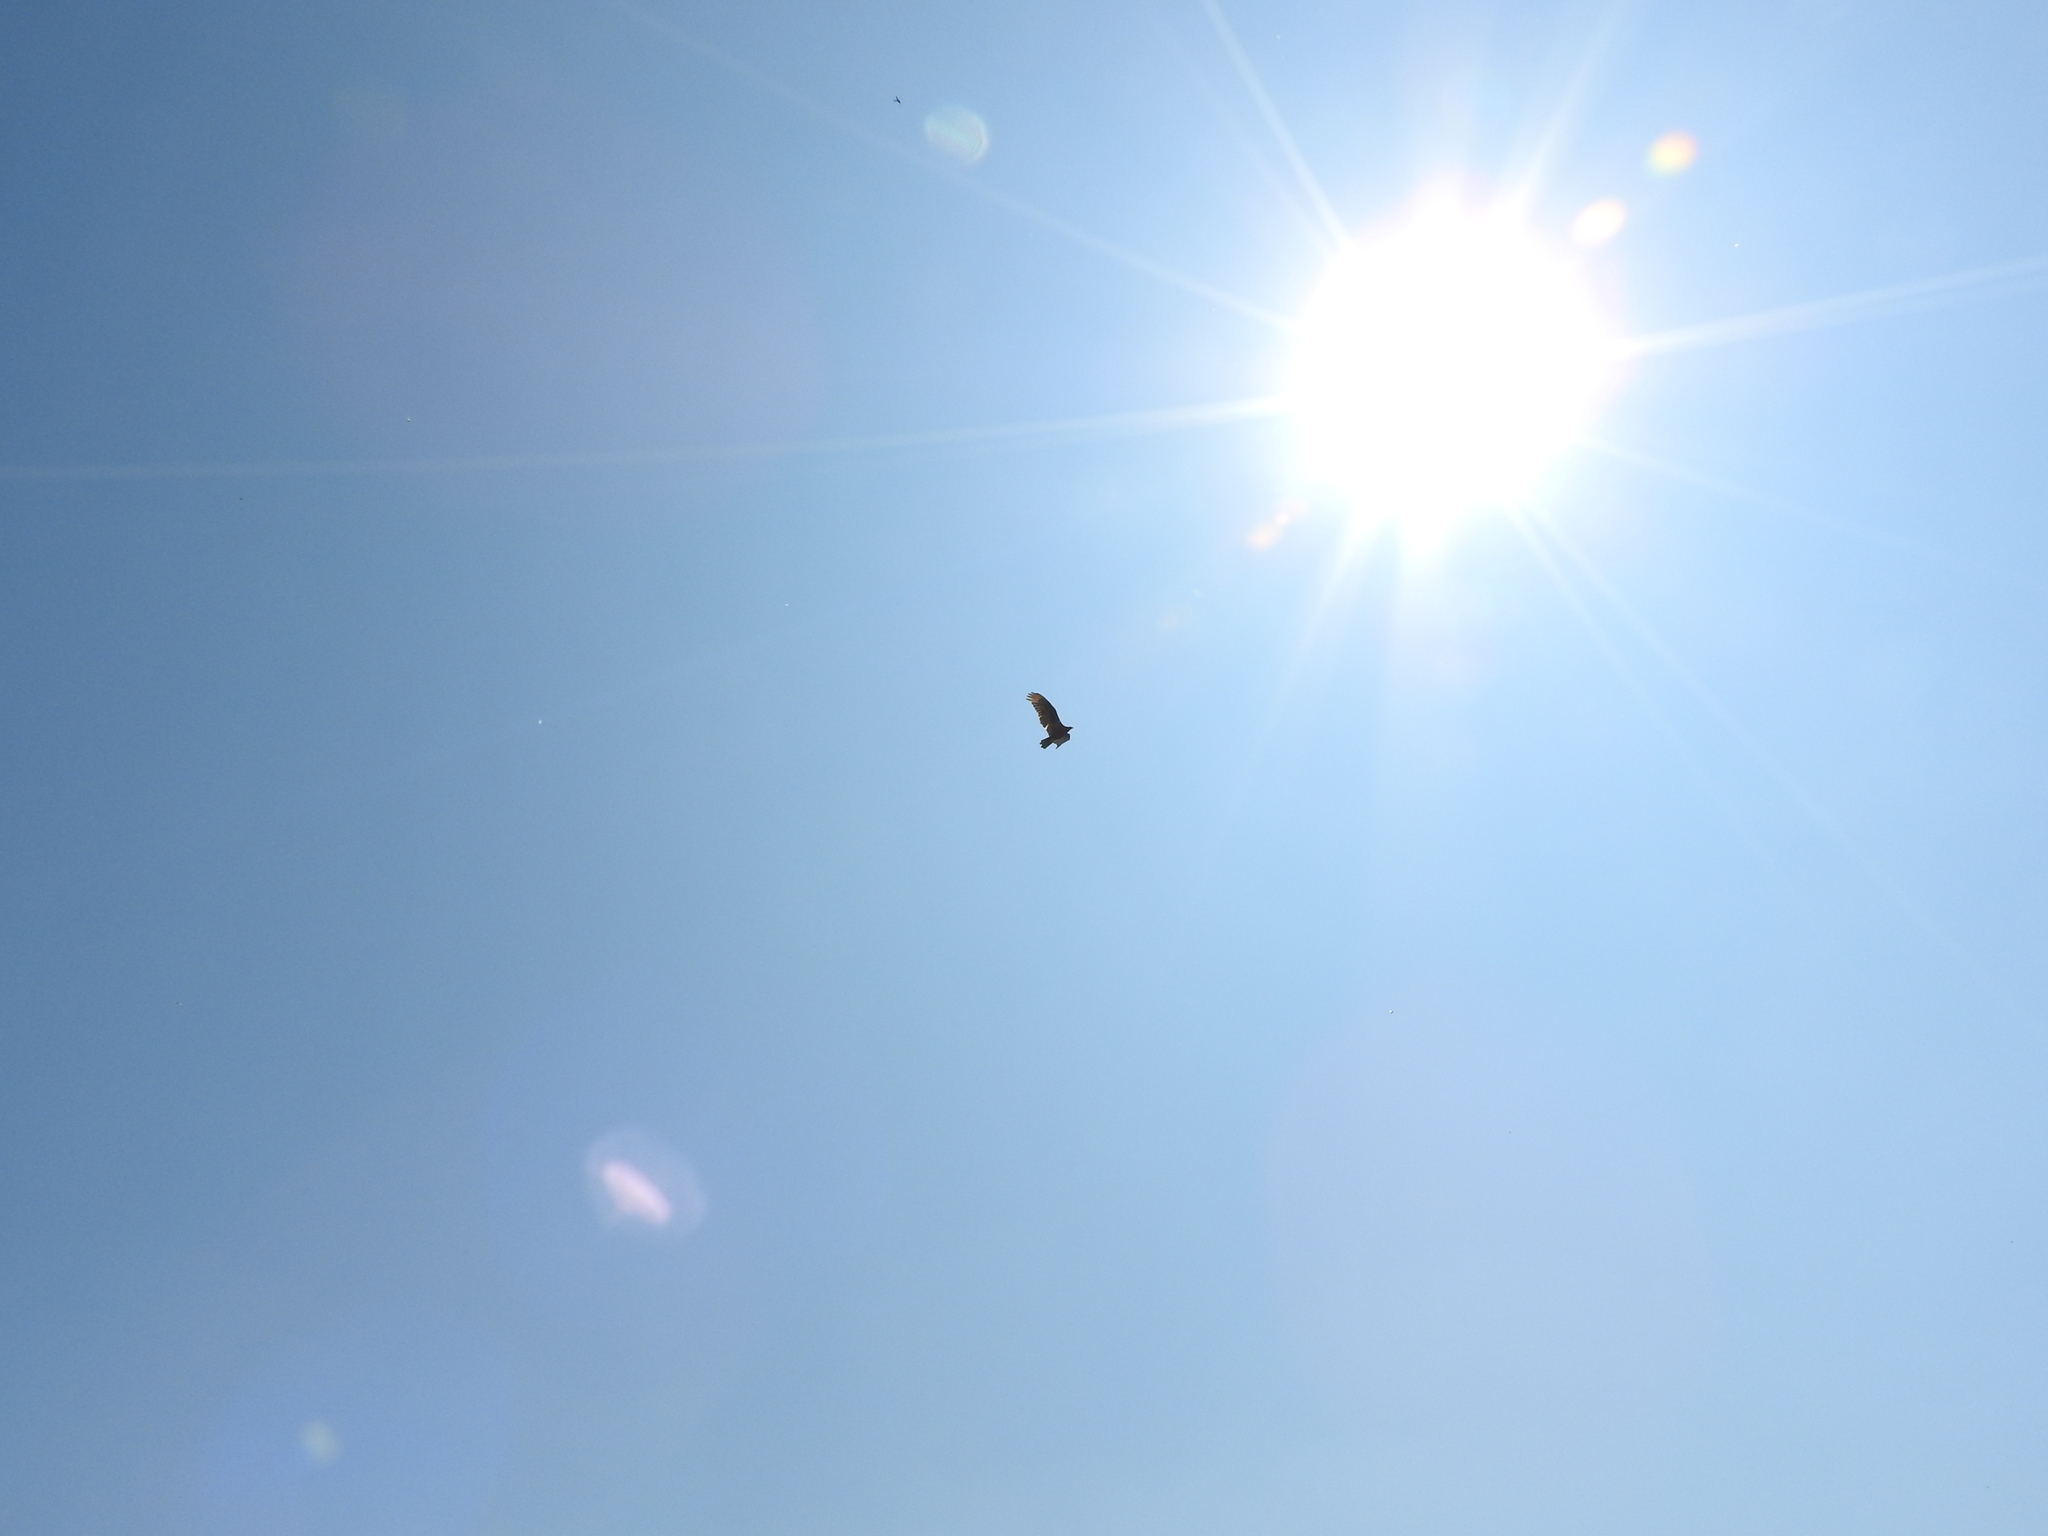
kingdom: Animalia
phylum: Chordata
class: Aves
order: Accipitriformes
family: Cathartidae
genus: Cathartes
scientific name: Cathartes aura
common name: Turkey vulture
